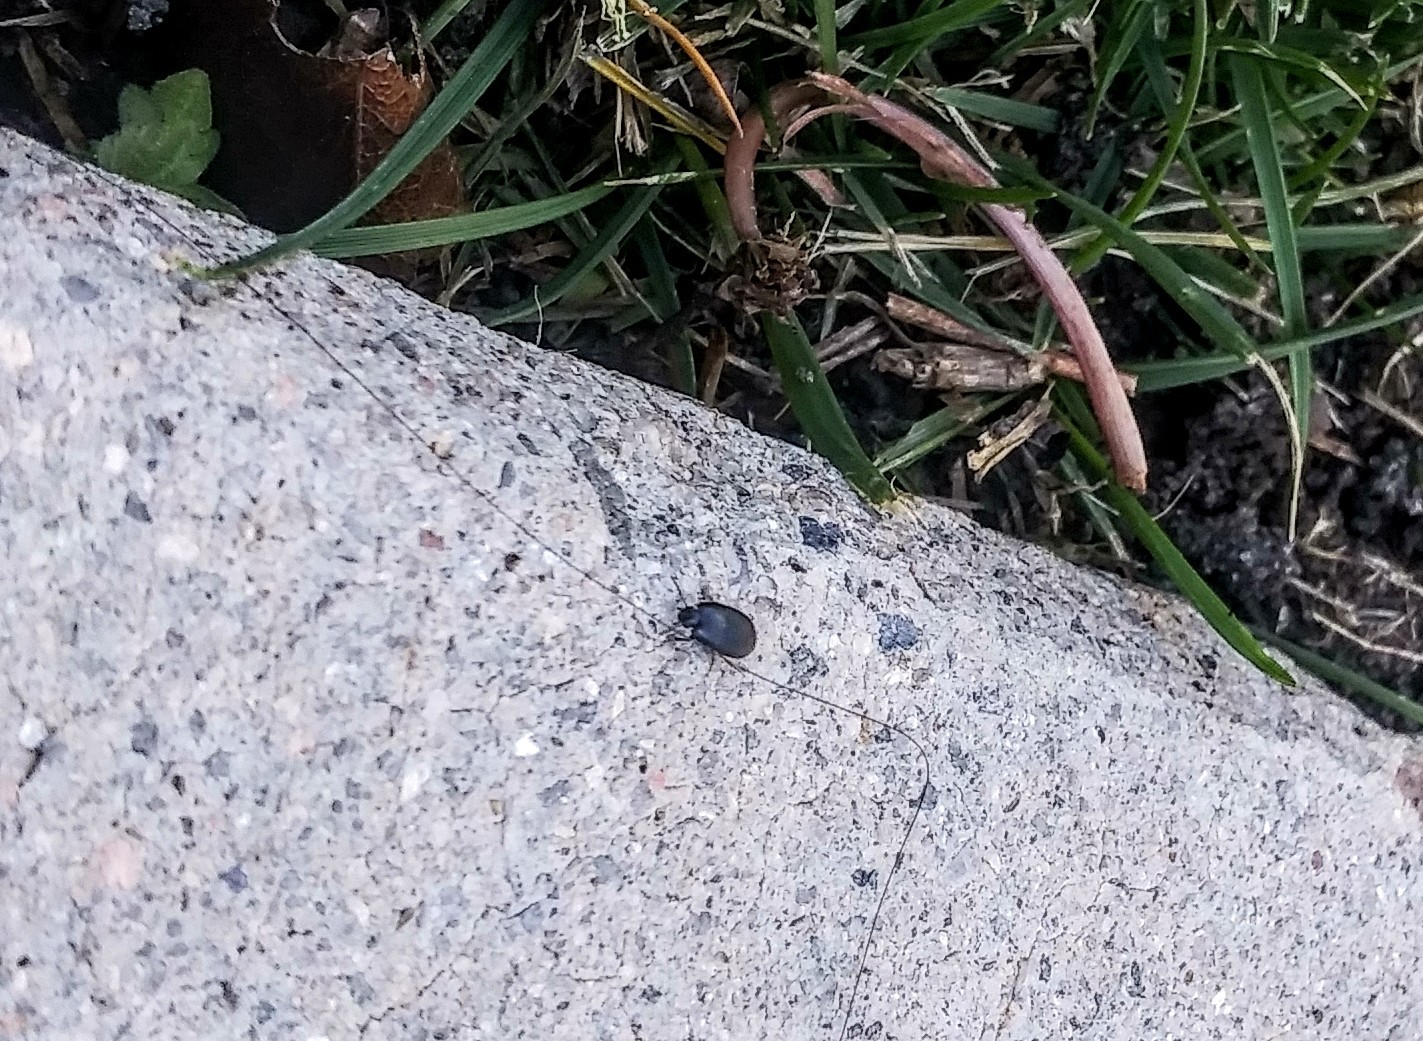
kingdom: Animalia
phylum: Arthropoda
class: Insecta
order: Coleoptera
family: Tenebrionidae
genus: Gondwanocrypticus
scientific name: Gondwanocrypticus platensis
